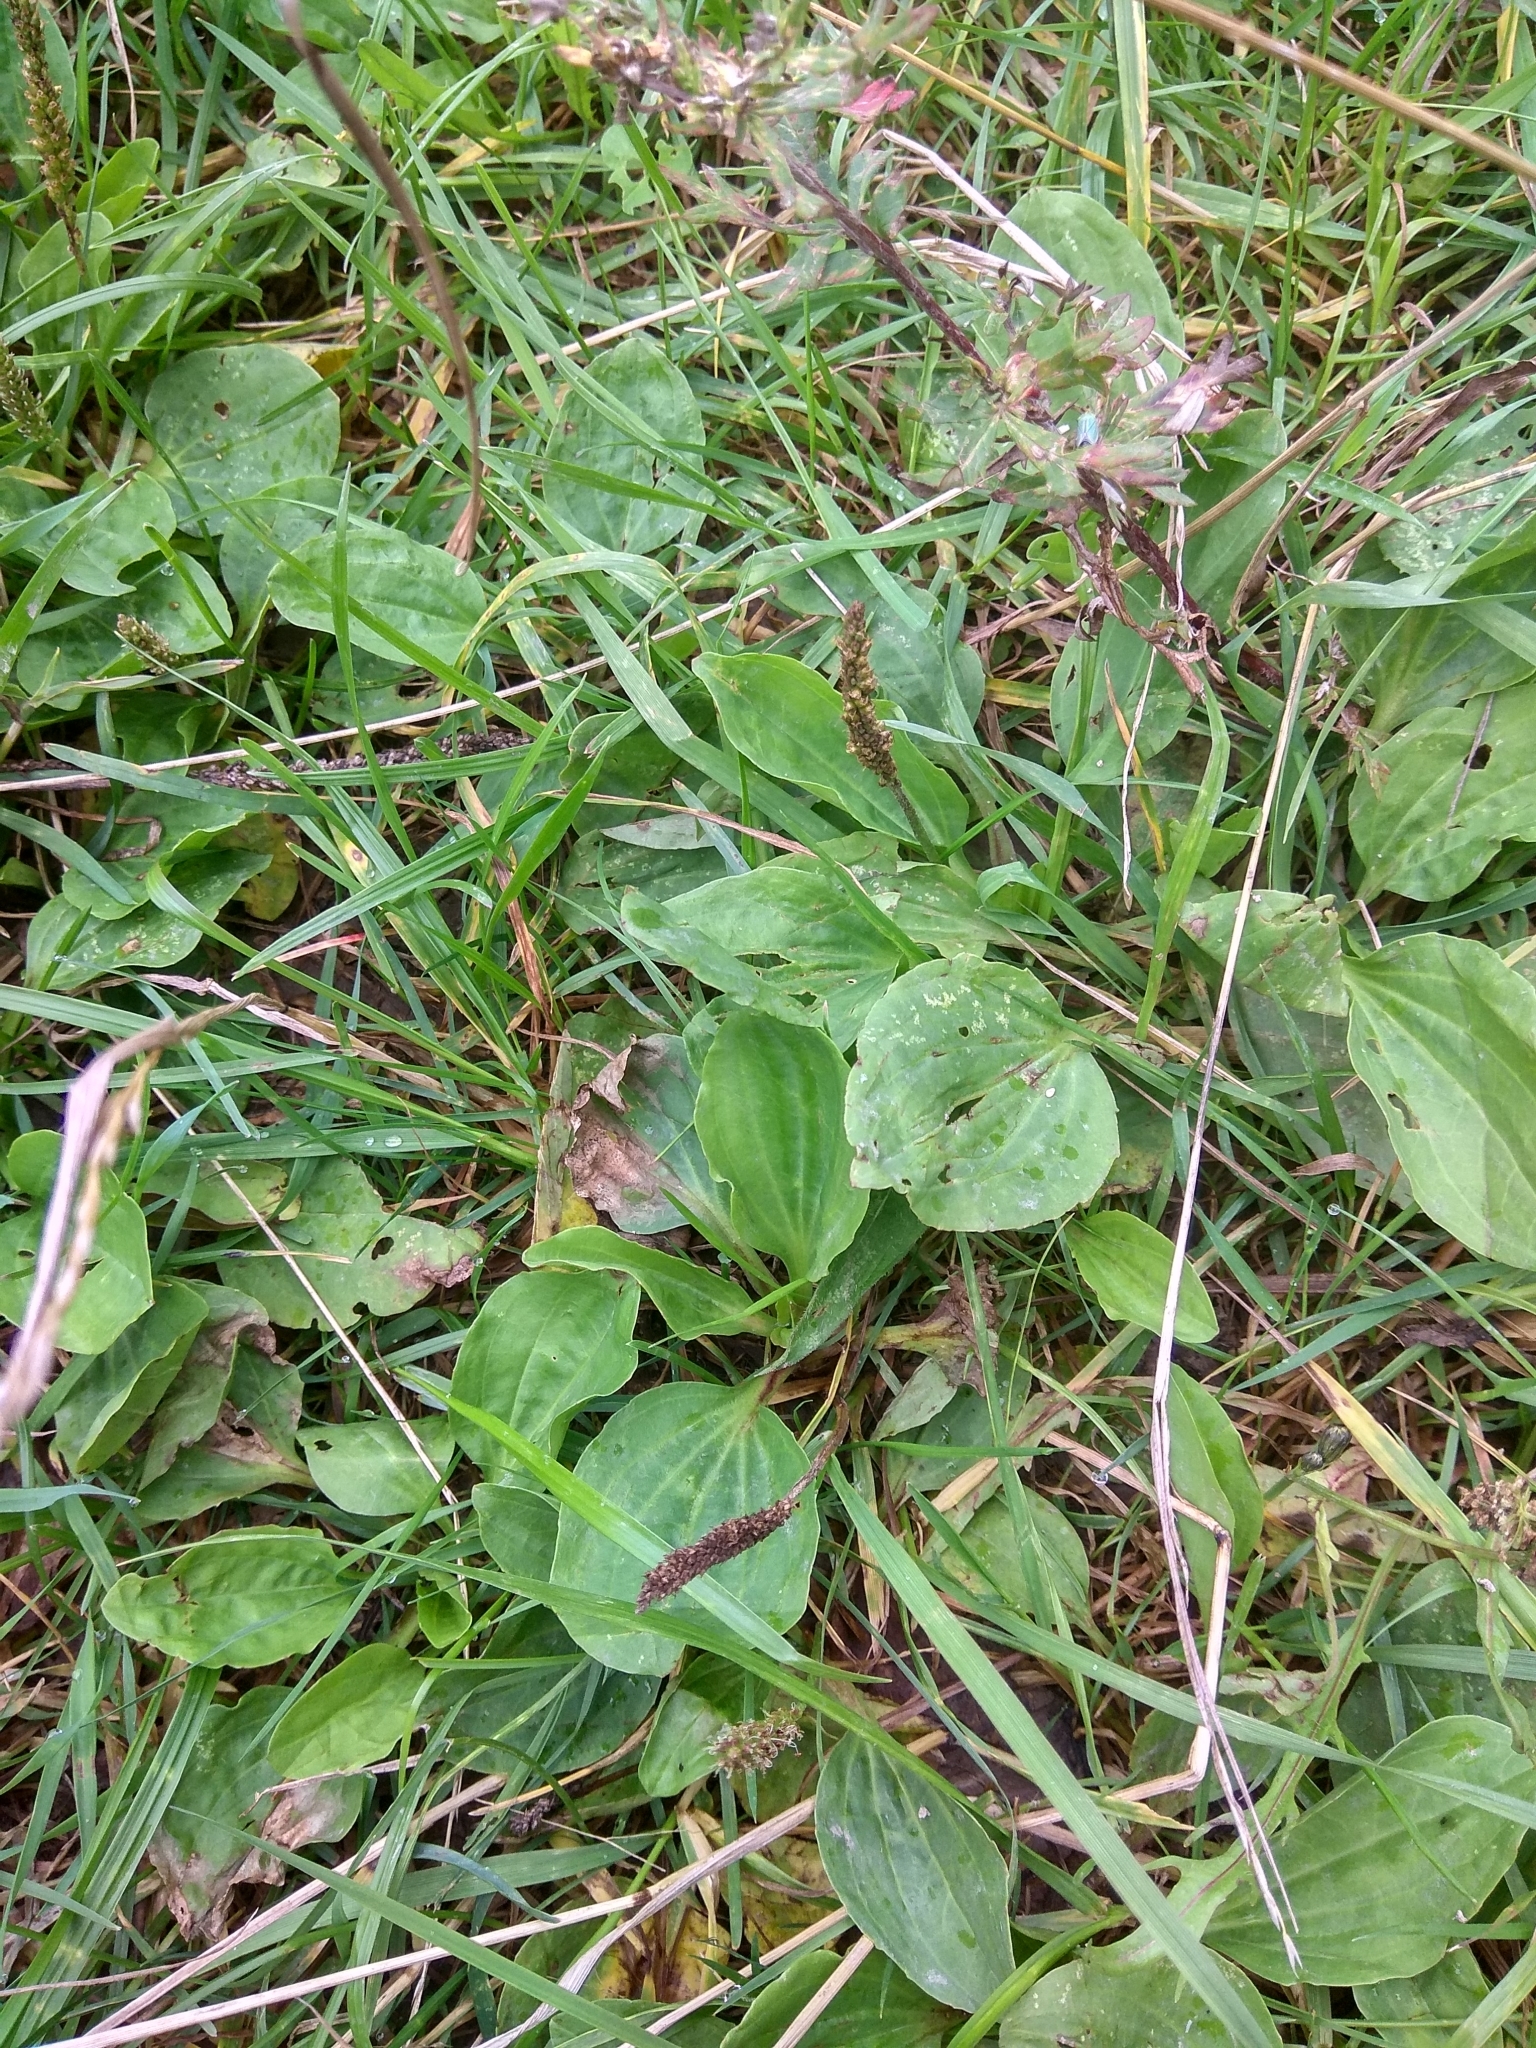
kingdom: Plantae
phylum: Tracheophyta
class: Magnoliopsida
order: Lamiales
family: Plantaginaceae
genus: Plantago
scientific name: Plantago major
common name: Common plantain
